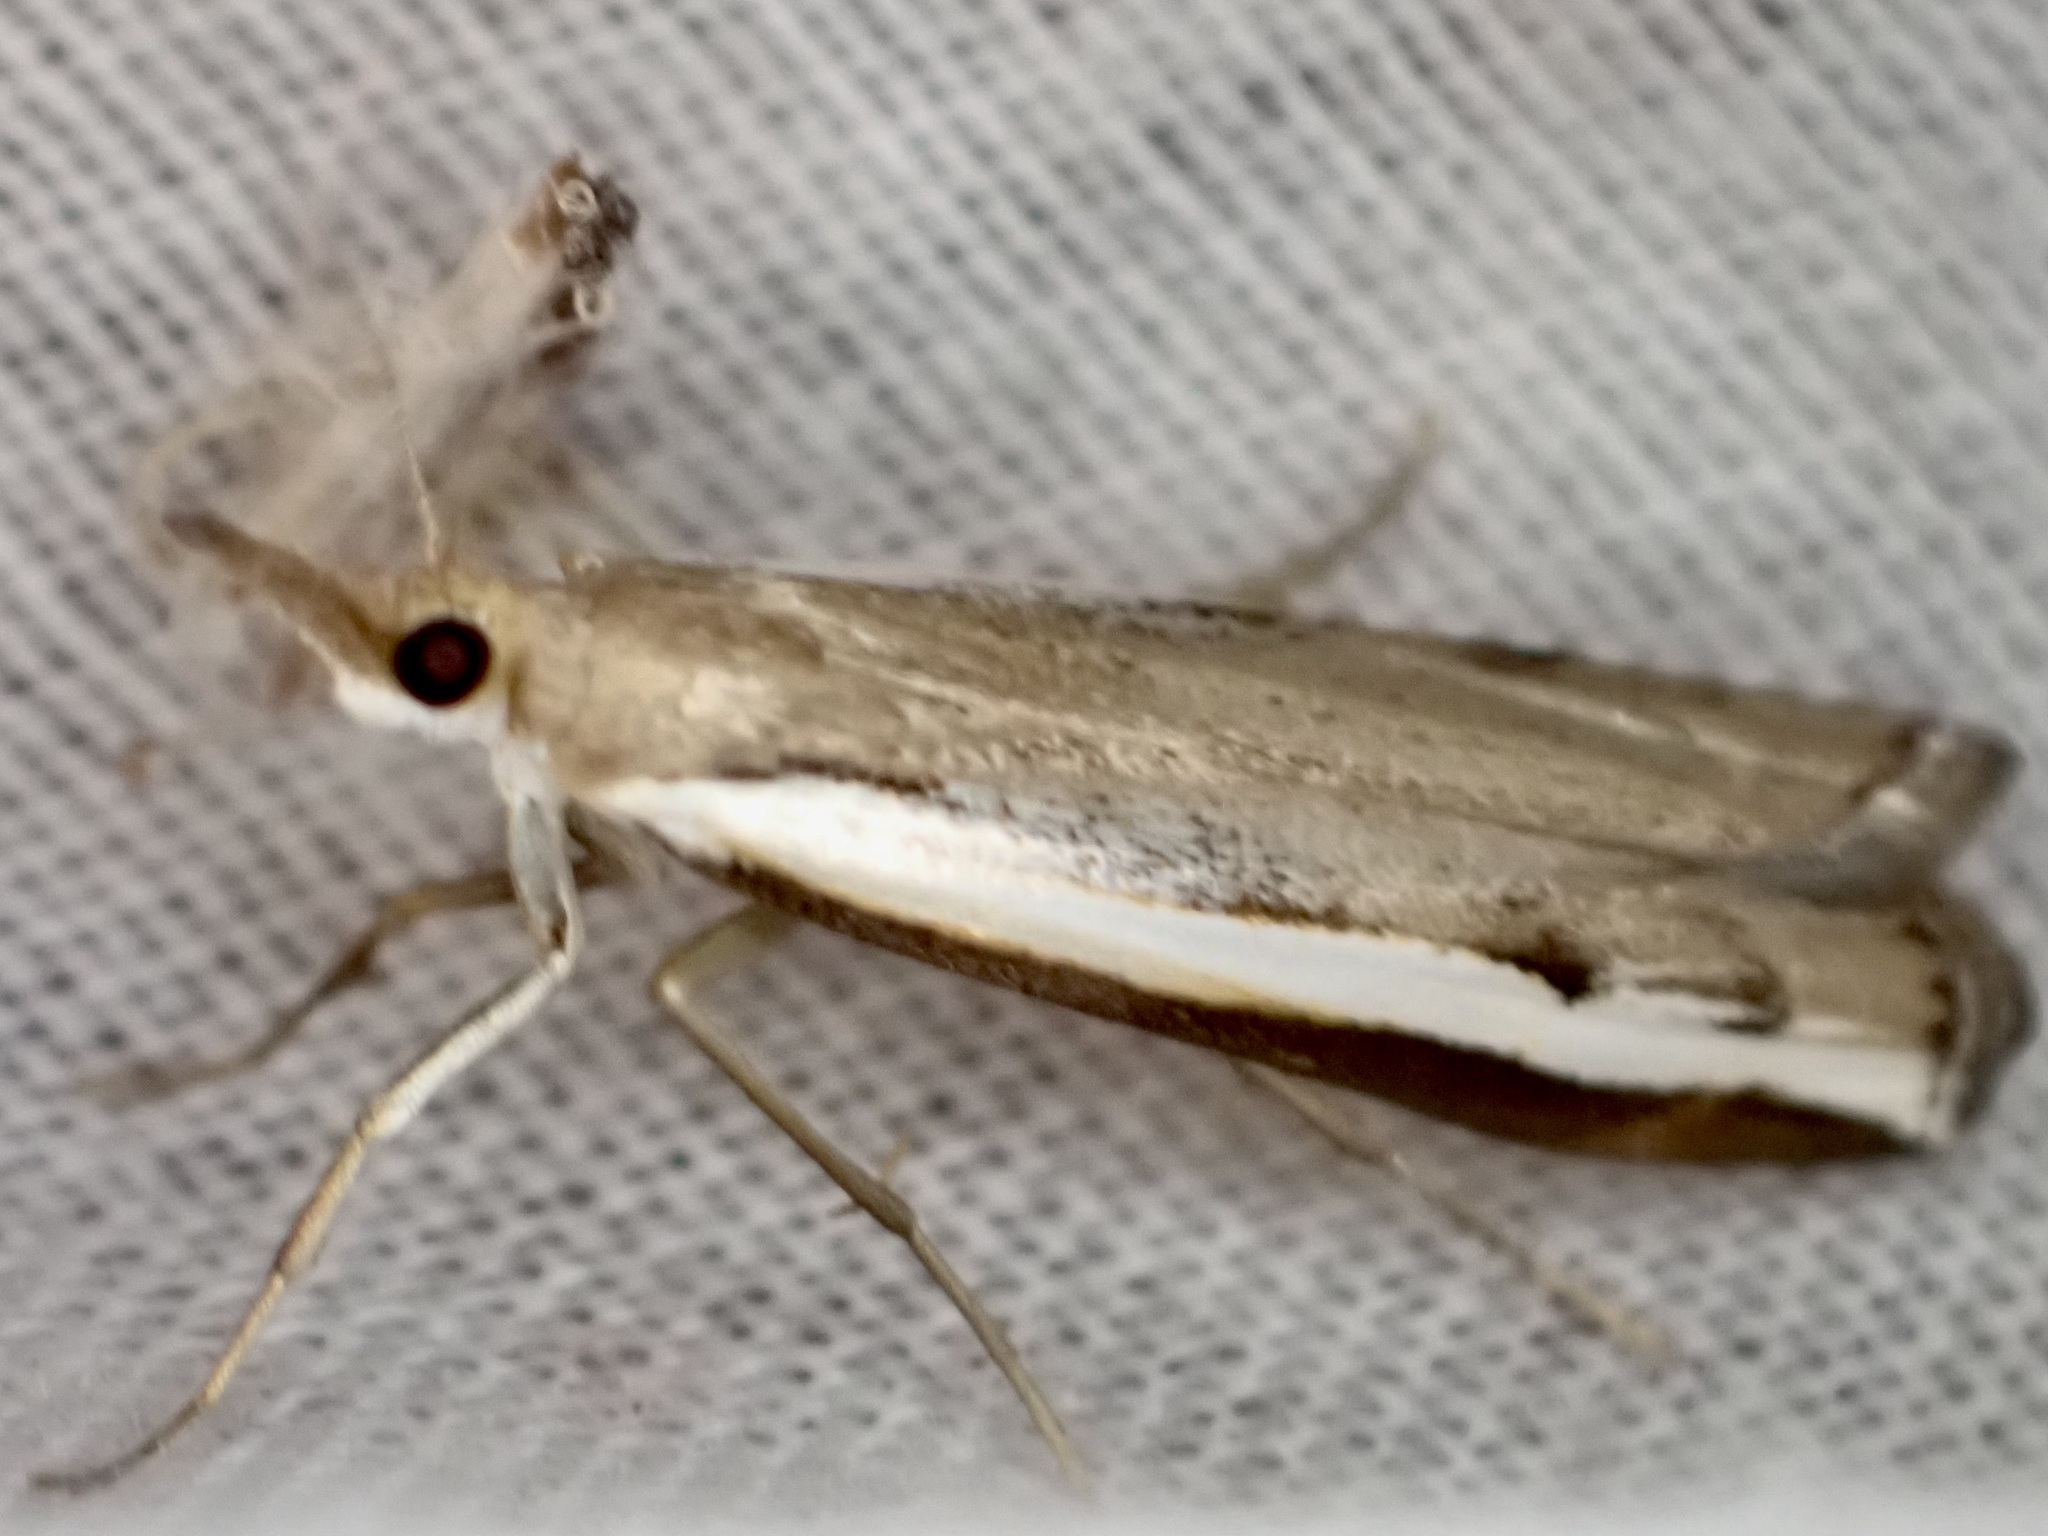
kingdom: Animalia
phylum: Arthropoda
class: Insecta
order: Lepidoptera
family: Crambidae
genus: Orocrambus
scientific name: Orocrambus flexuosellus
